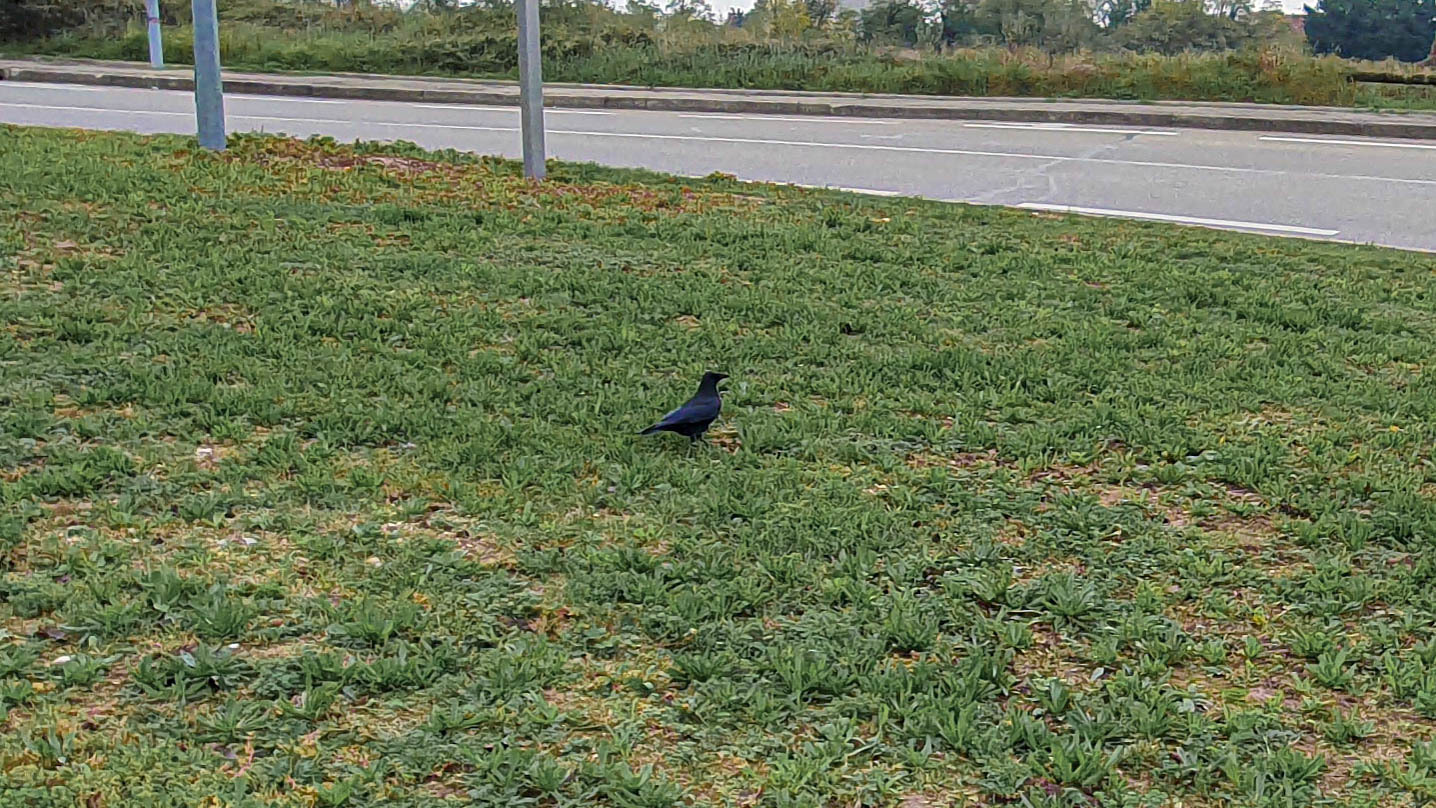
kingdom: Animalia
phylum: Chordata
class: Aves
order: Passeriformes
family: Corvidae
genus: Corvus
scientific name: Corvus corone
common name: Carrion crow
